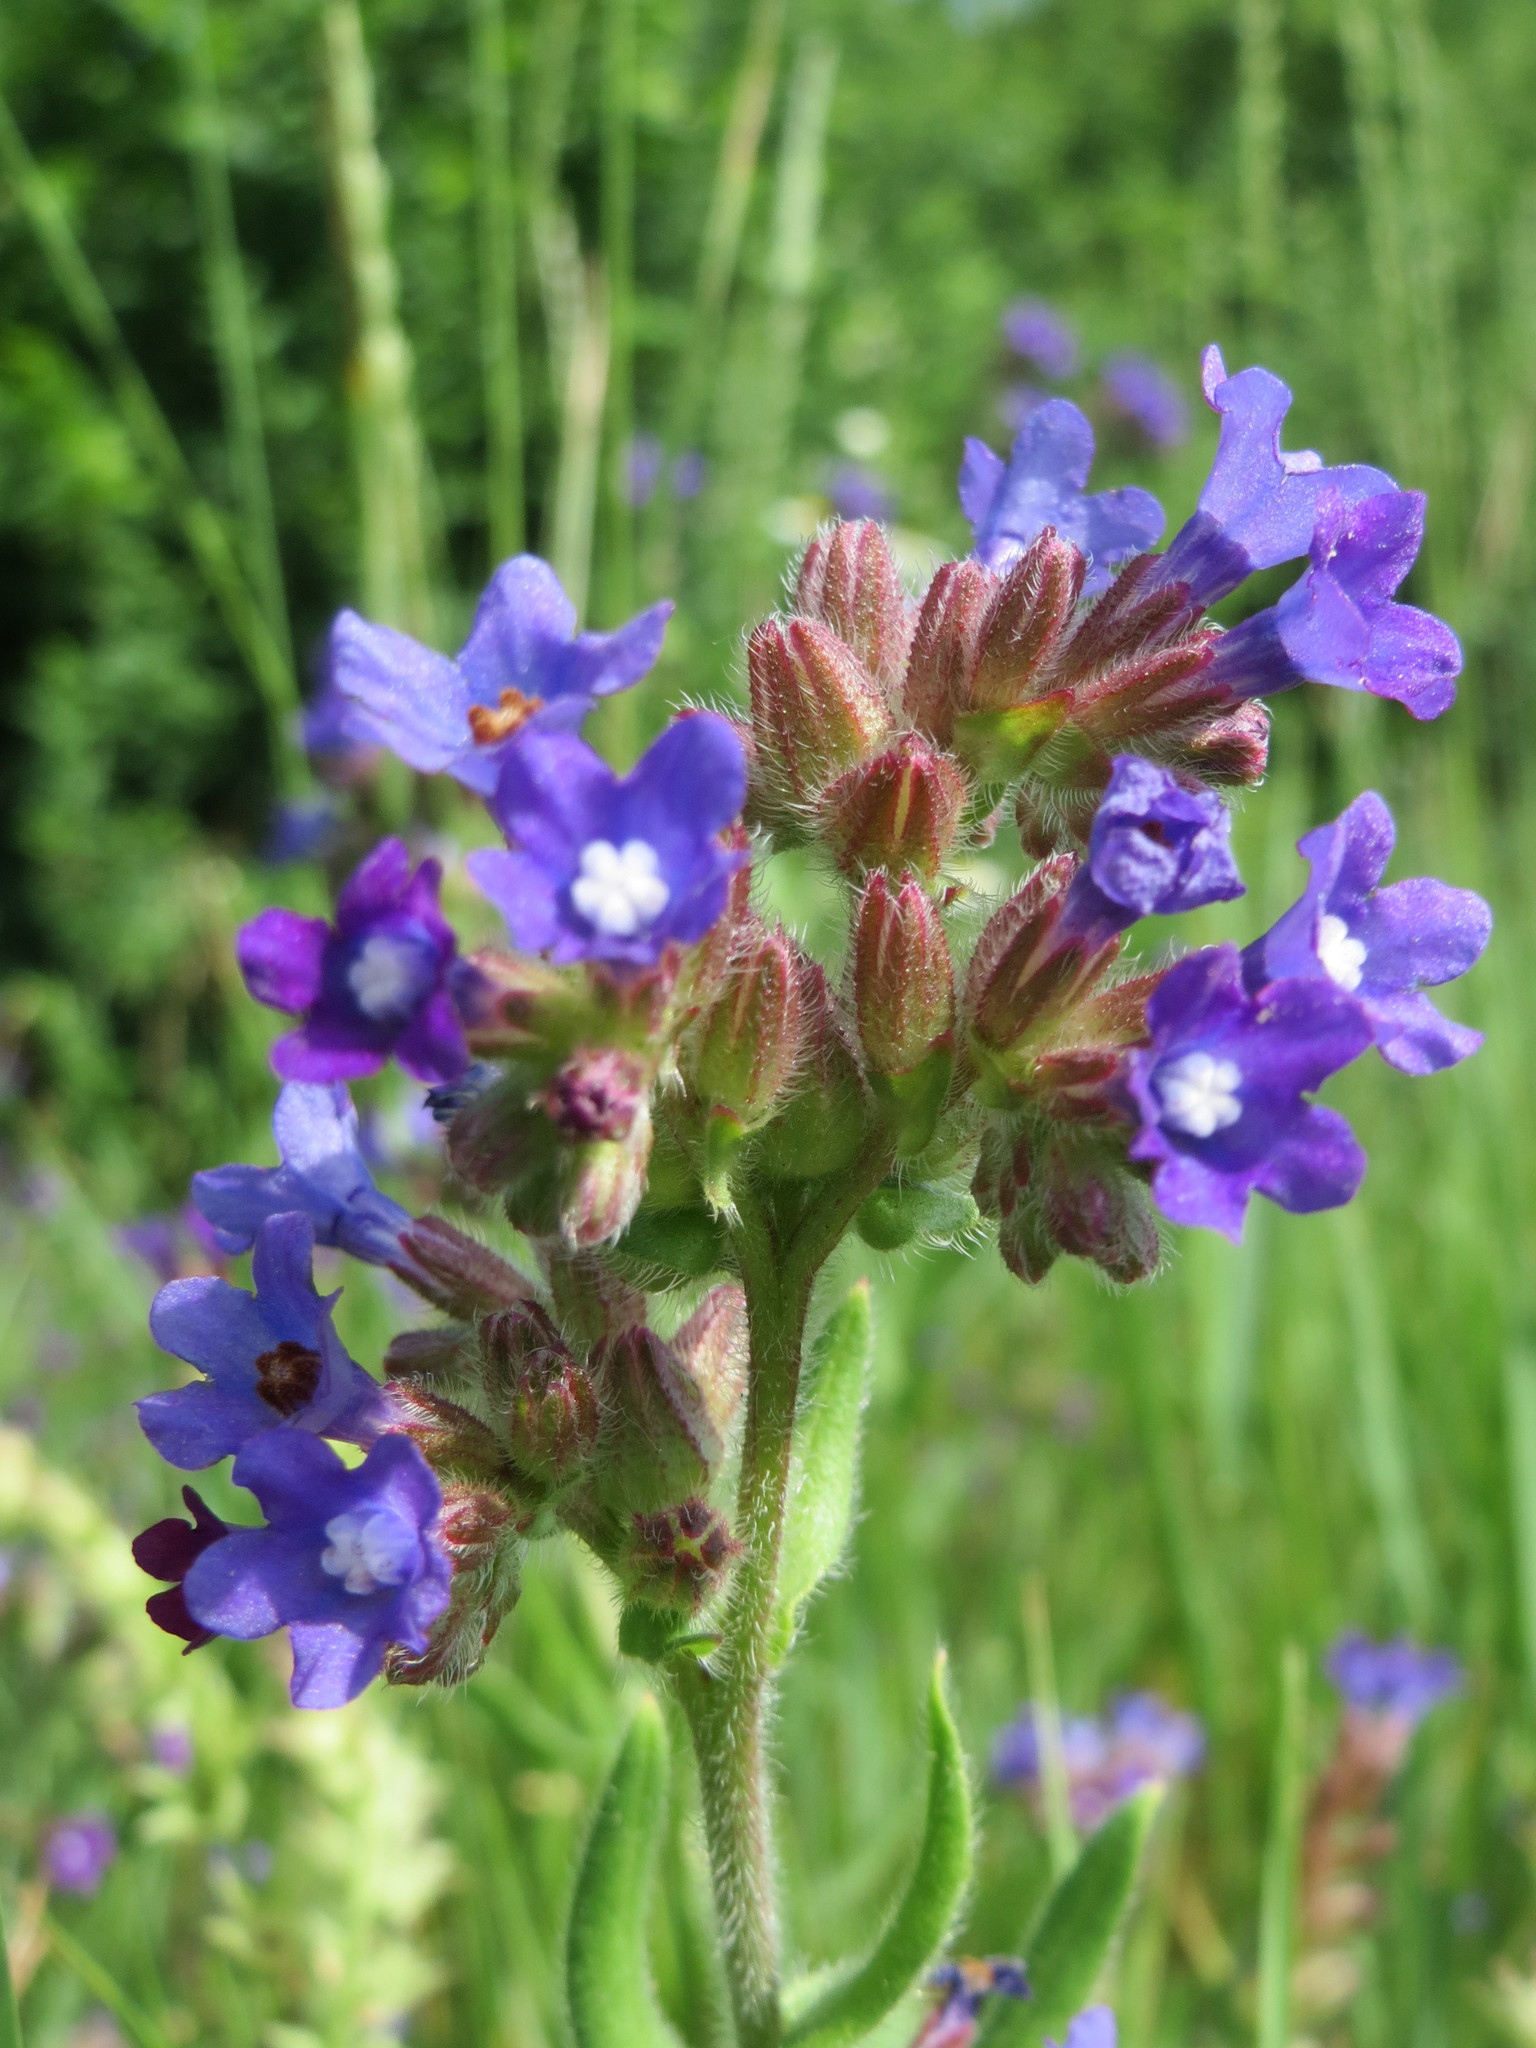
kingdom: Plantae
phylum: Tracheophyta
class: Magnoliopsida
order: Boraginales
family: Boraginaceae
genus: Anchusa
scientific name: Anchusa officinalis
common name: Alkanet
